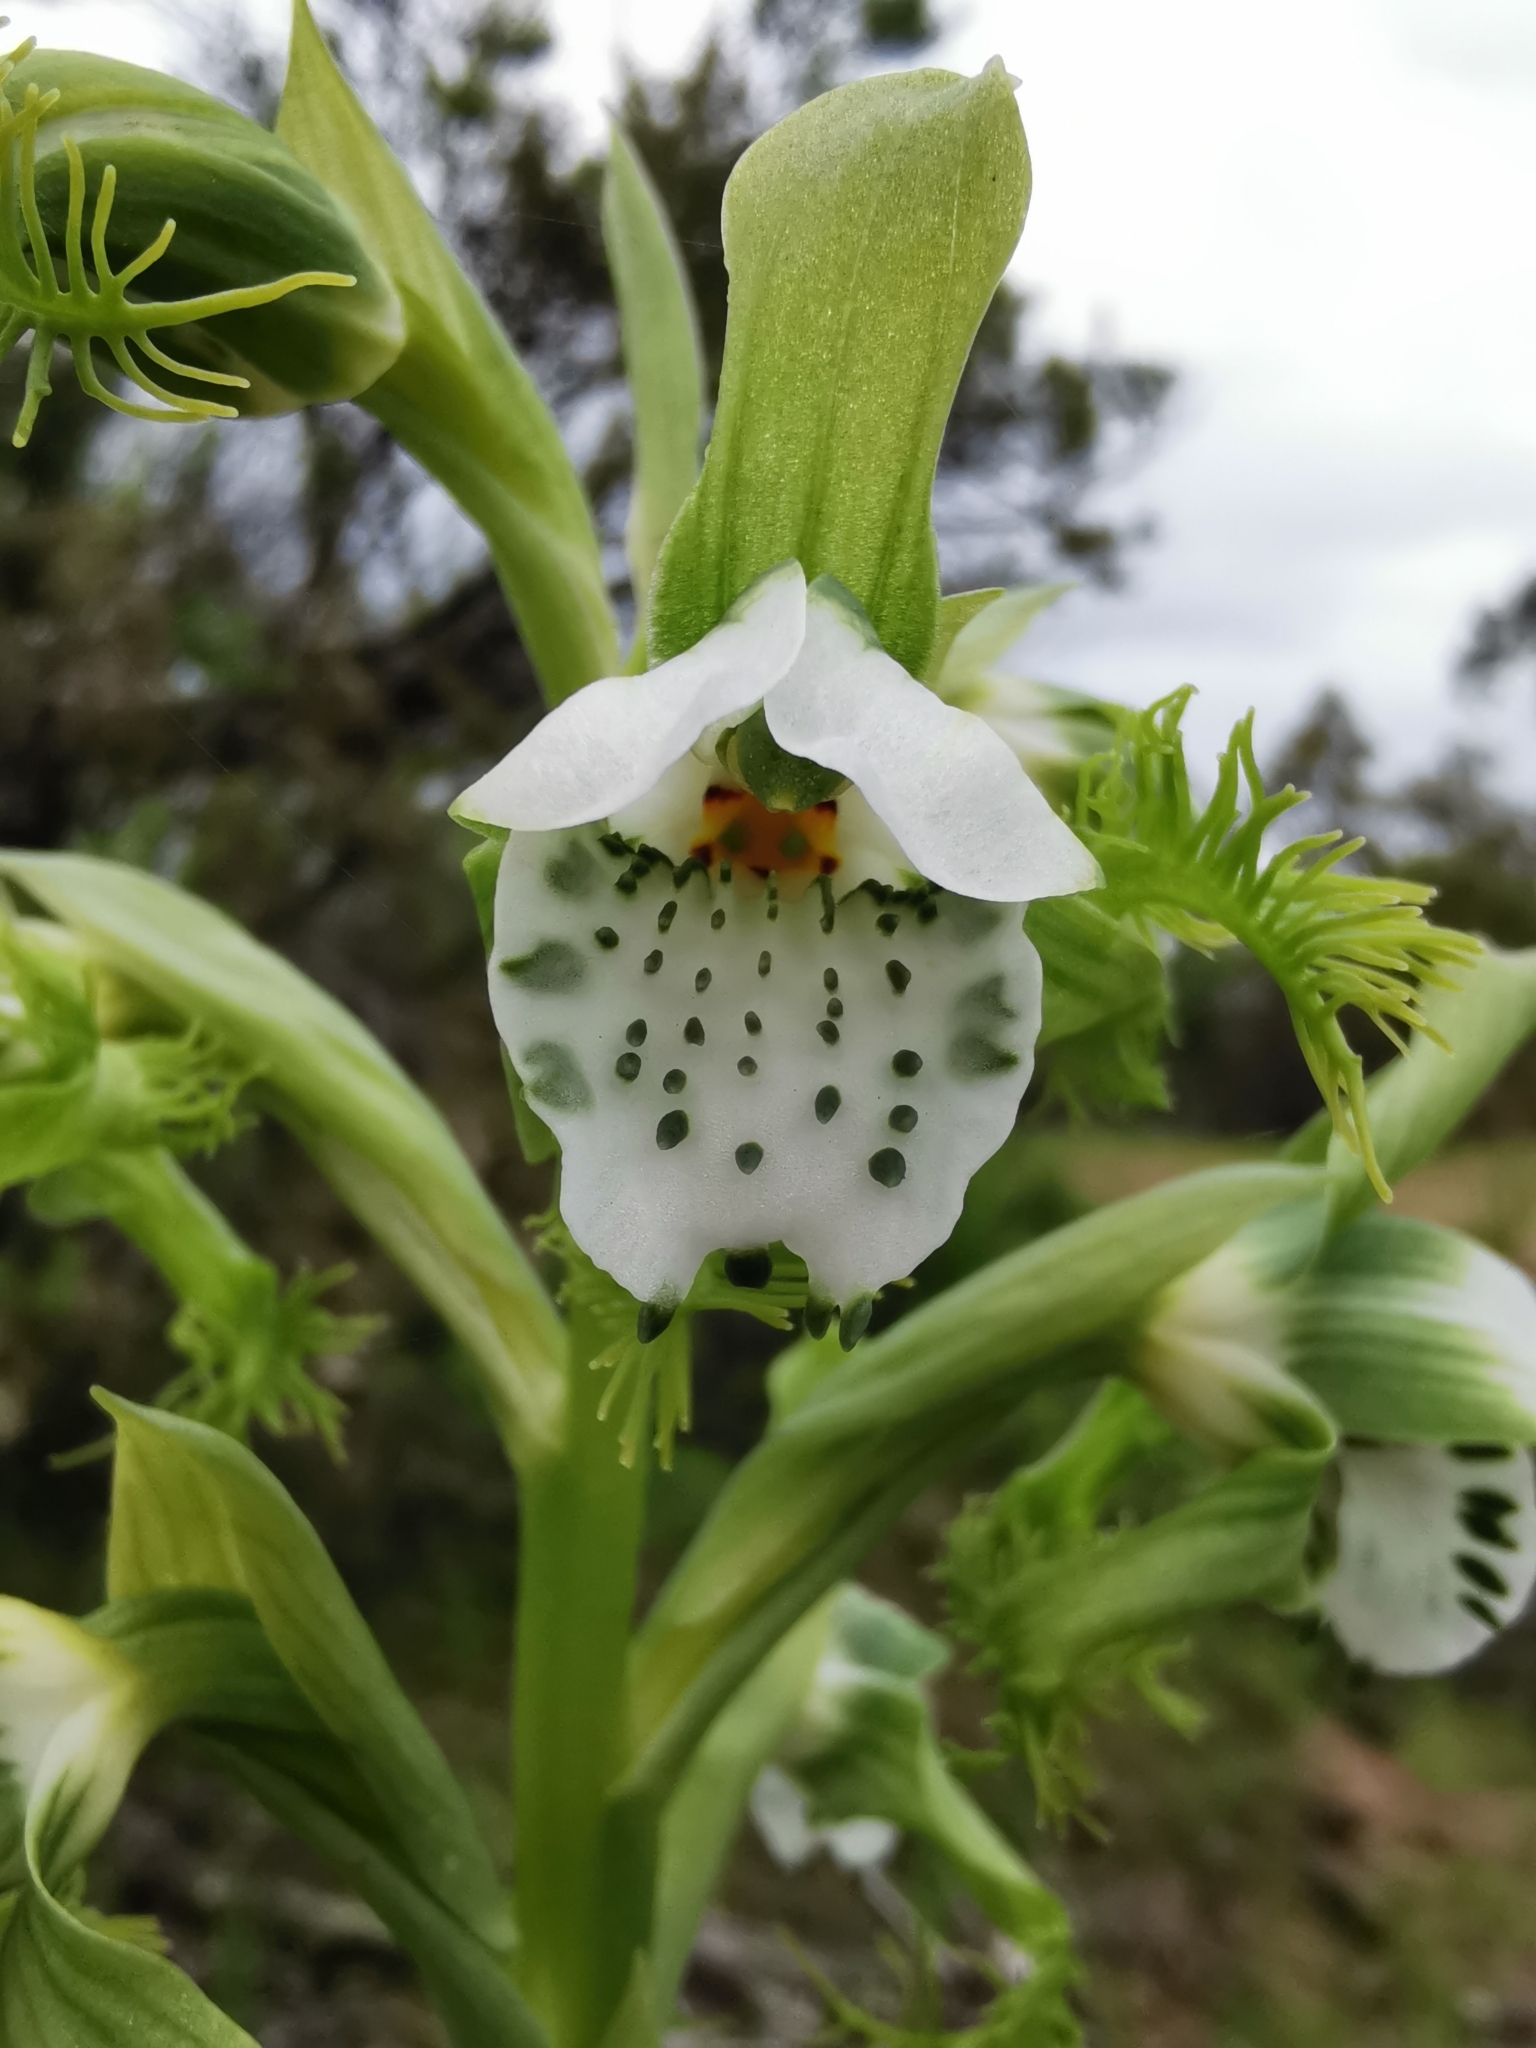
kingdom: Plantae
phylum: Tracheophyta
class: Liliopsida
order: Asparagales
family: Orchidaceae
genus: Bipinnula
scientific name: Bipinnula fimbriata
